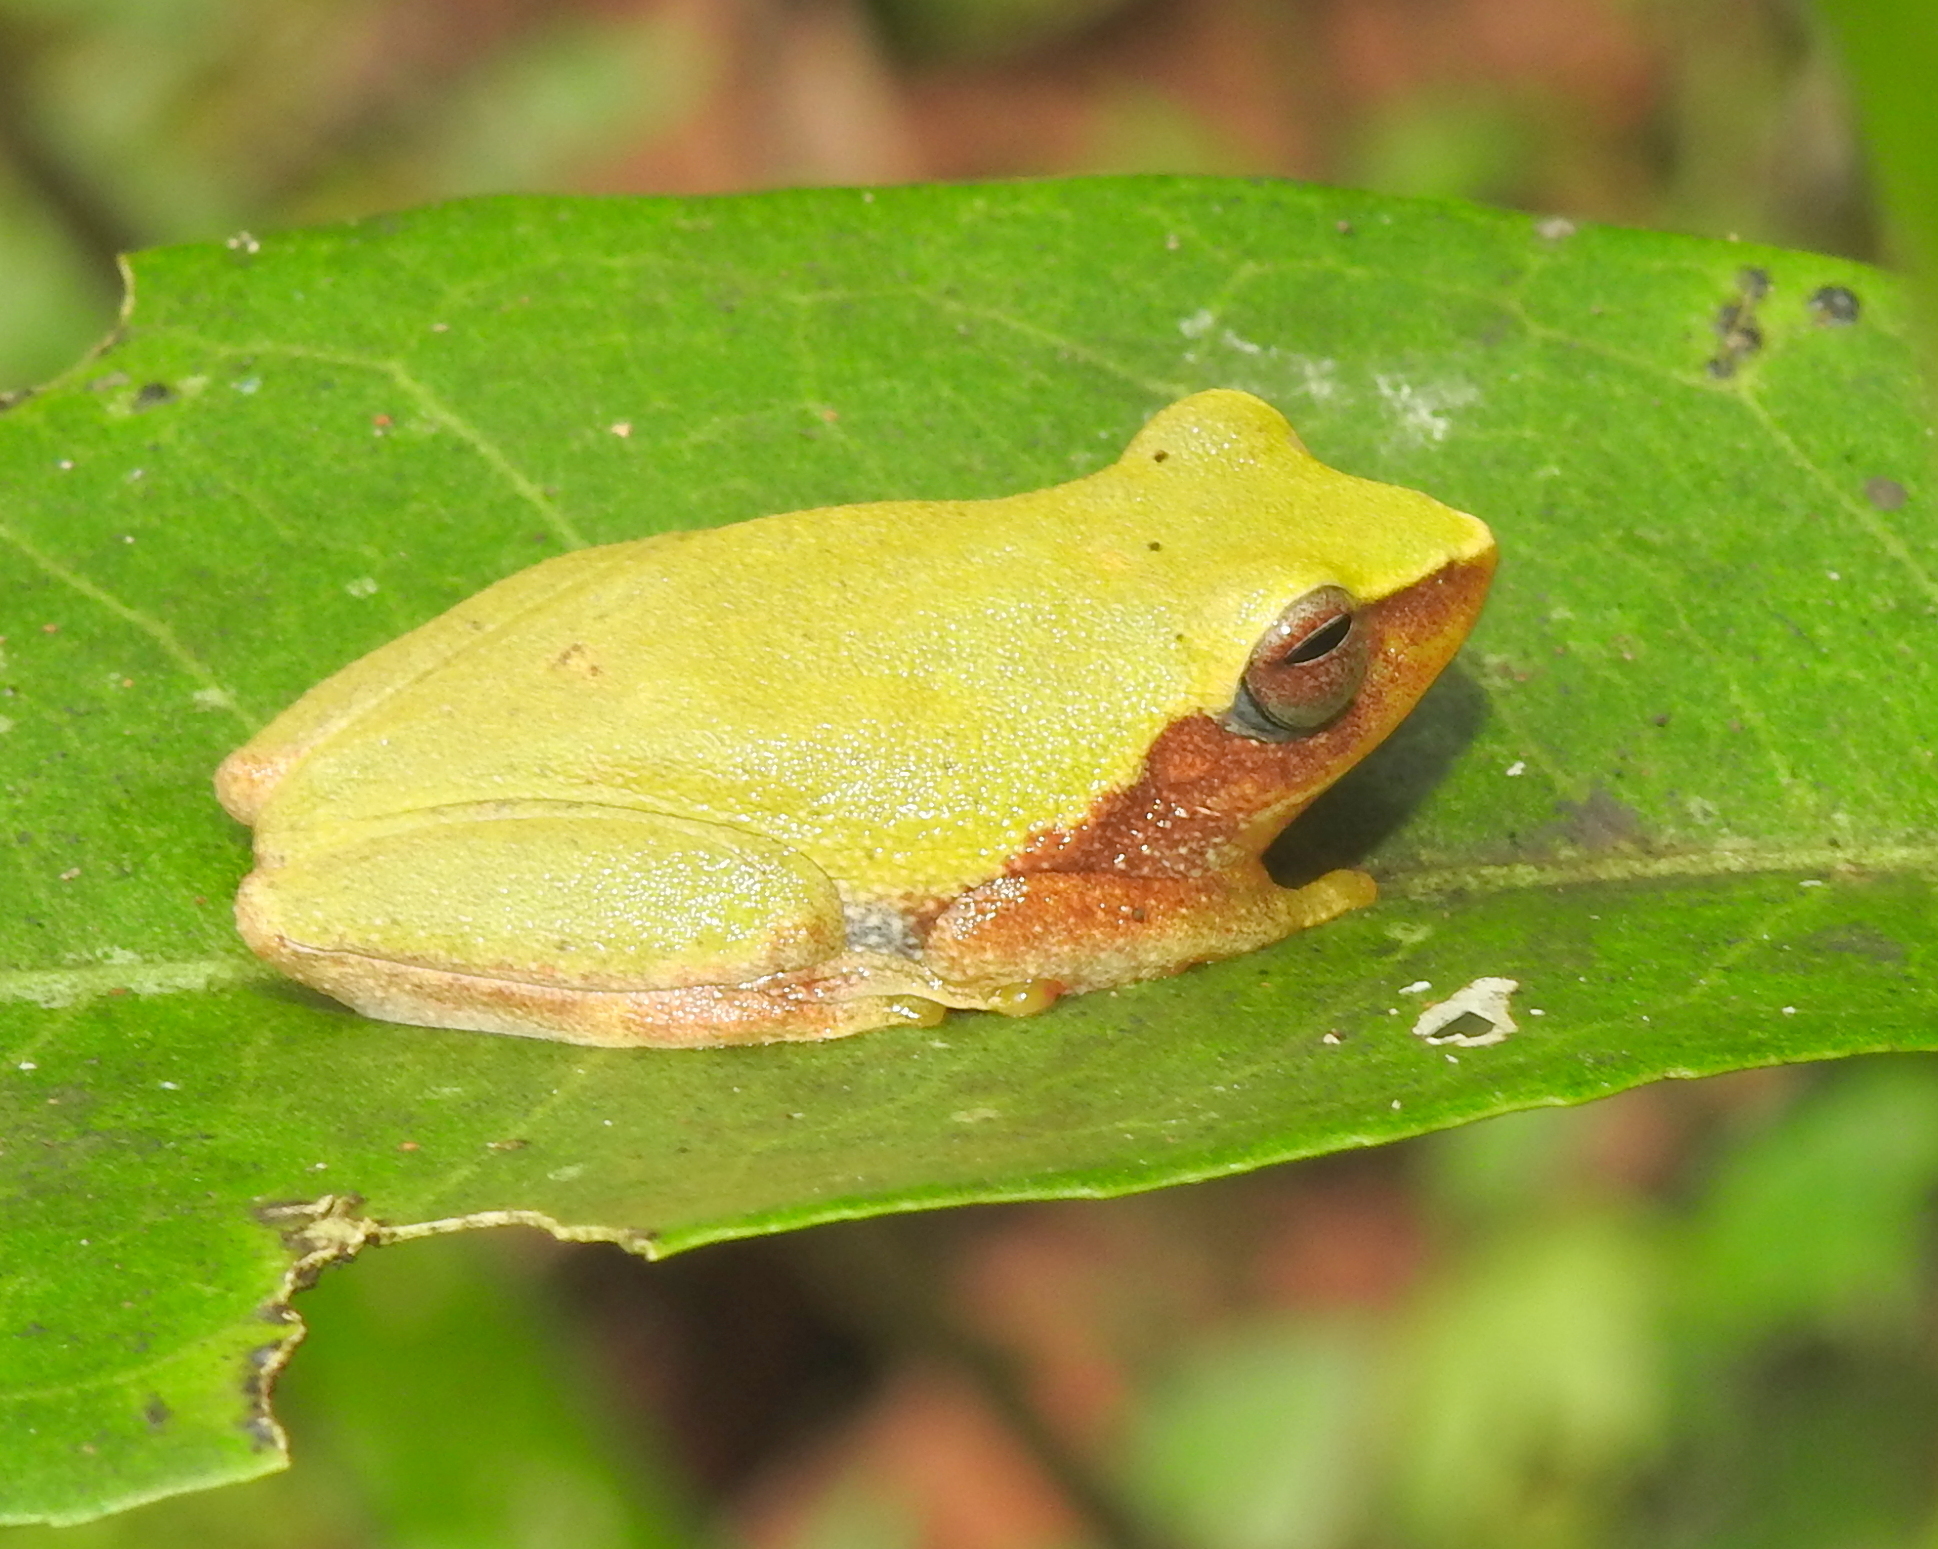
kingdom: Animalia
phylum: Chordata
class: Amphibia
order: Anura
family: Rhacophoridae
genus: Raorchestes
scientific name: Raorchestes akroparallagi
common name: Variable bush frog
